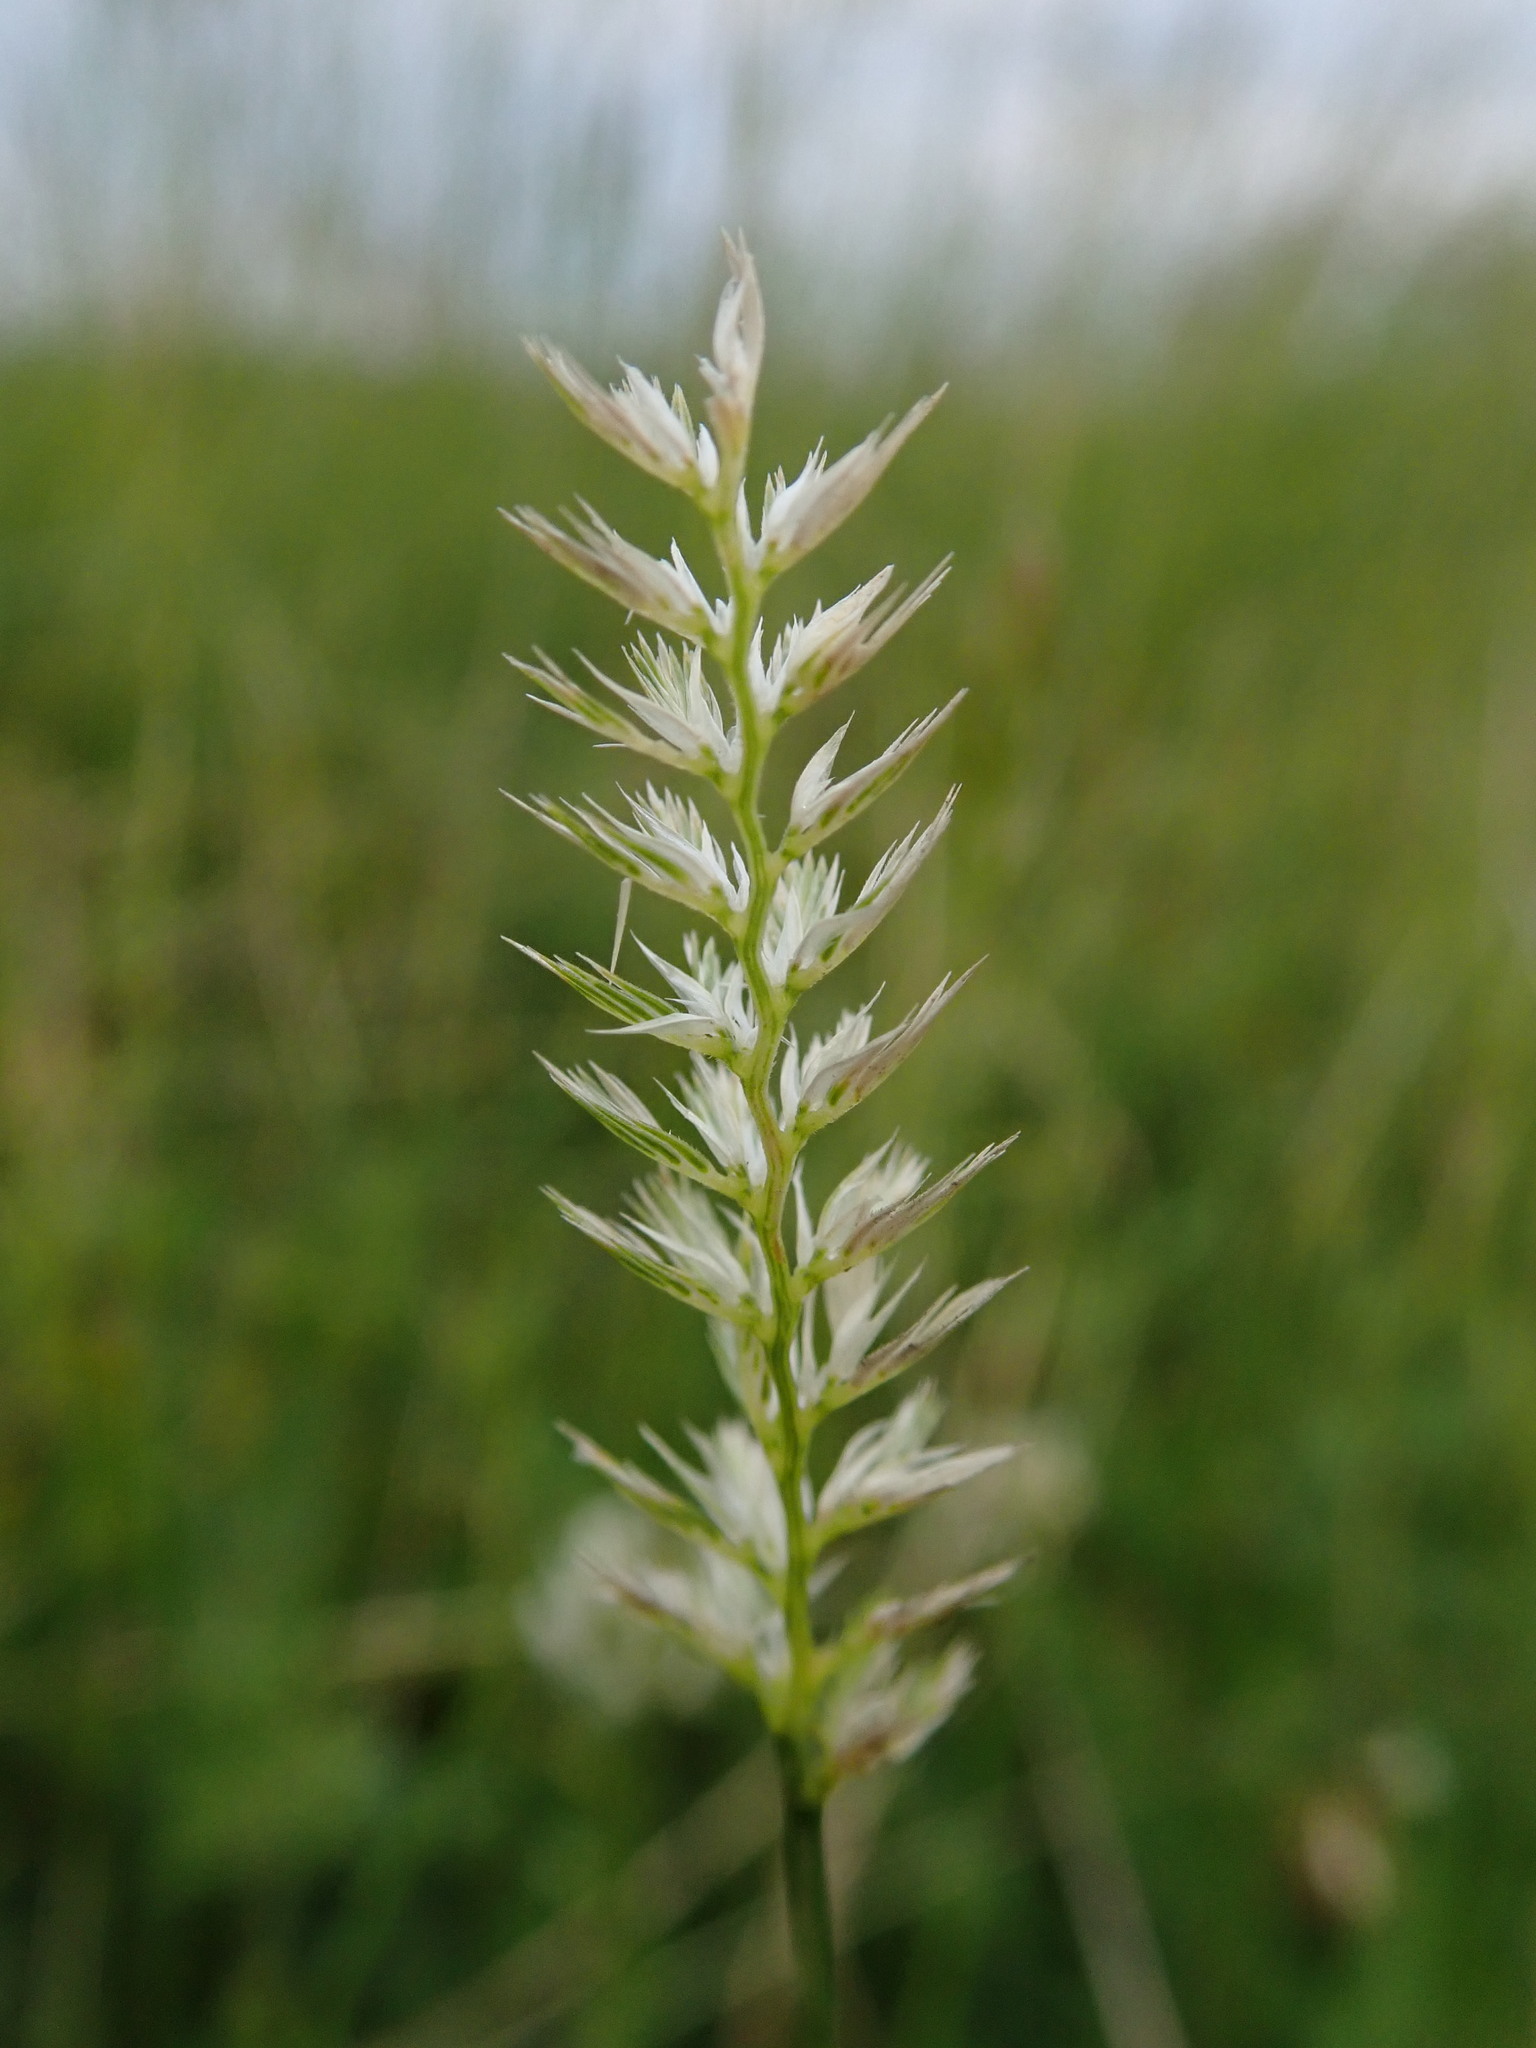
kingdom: Plantae
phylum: Tracheophyta
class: Liliopsida
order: Poales
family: Poaceae
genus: Cynosurus
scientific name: Cynosurus cristatus
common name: Crested dog's-tail
